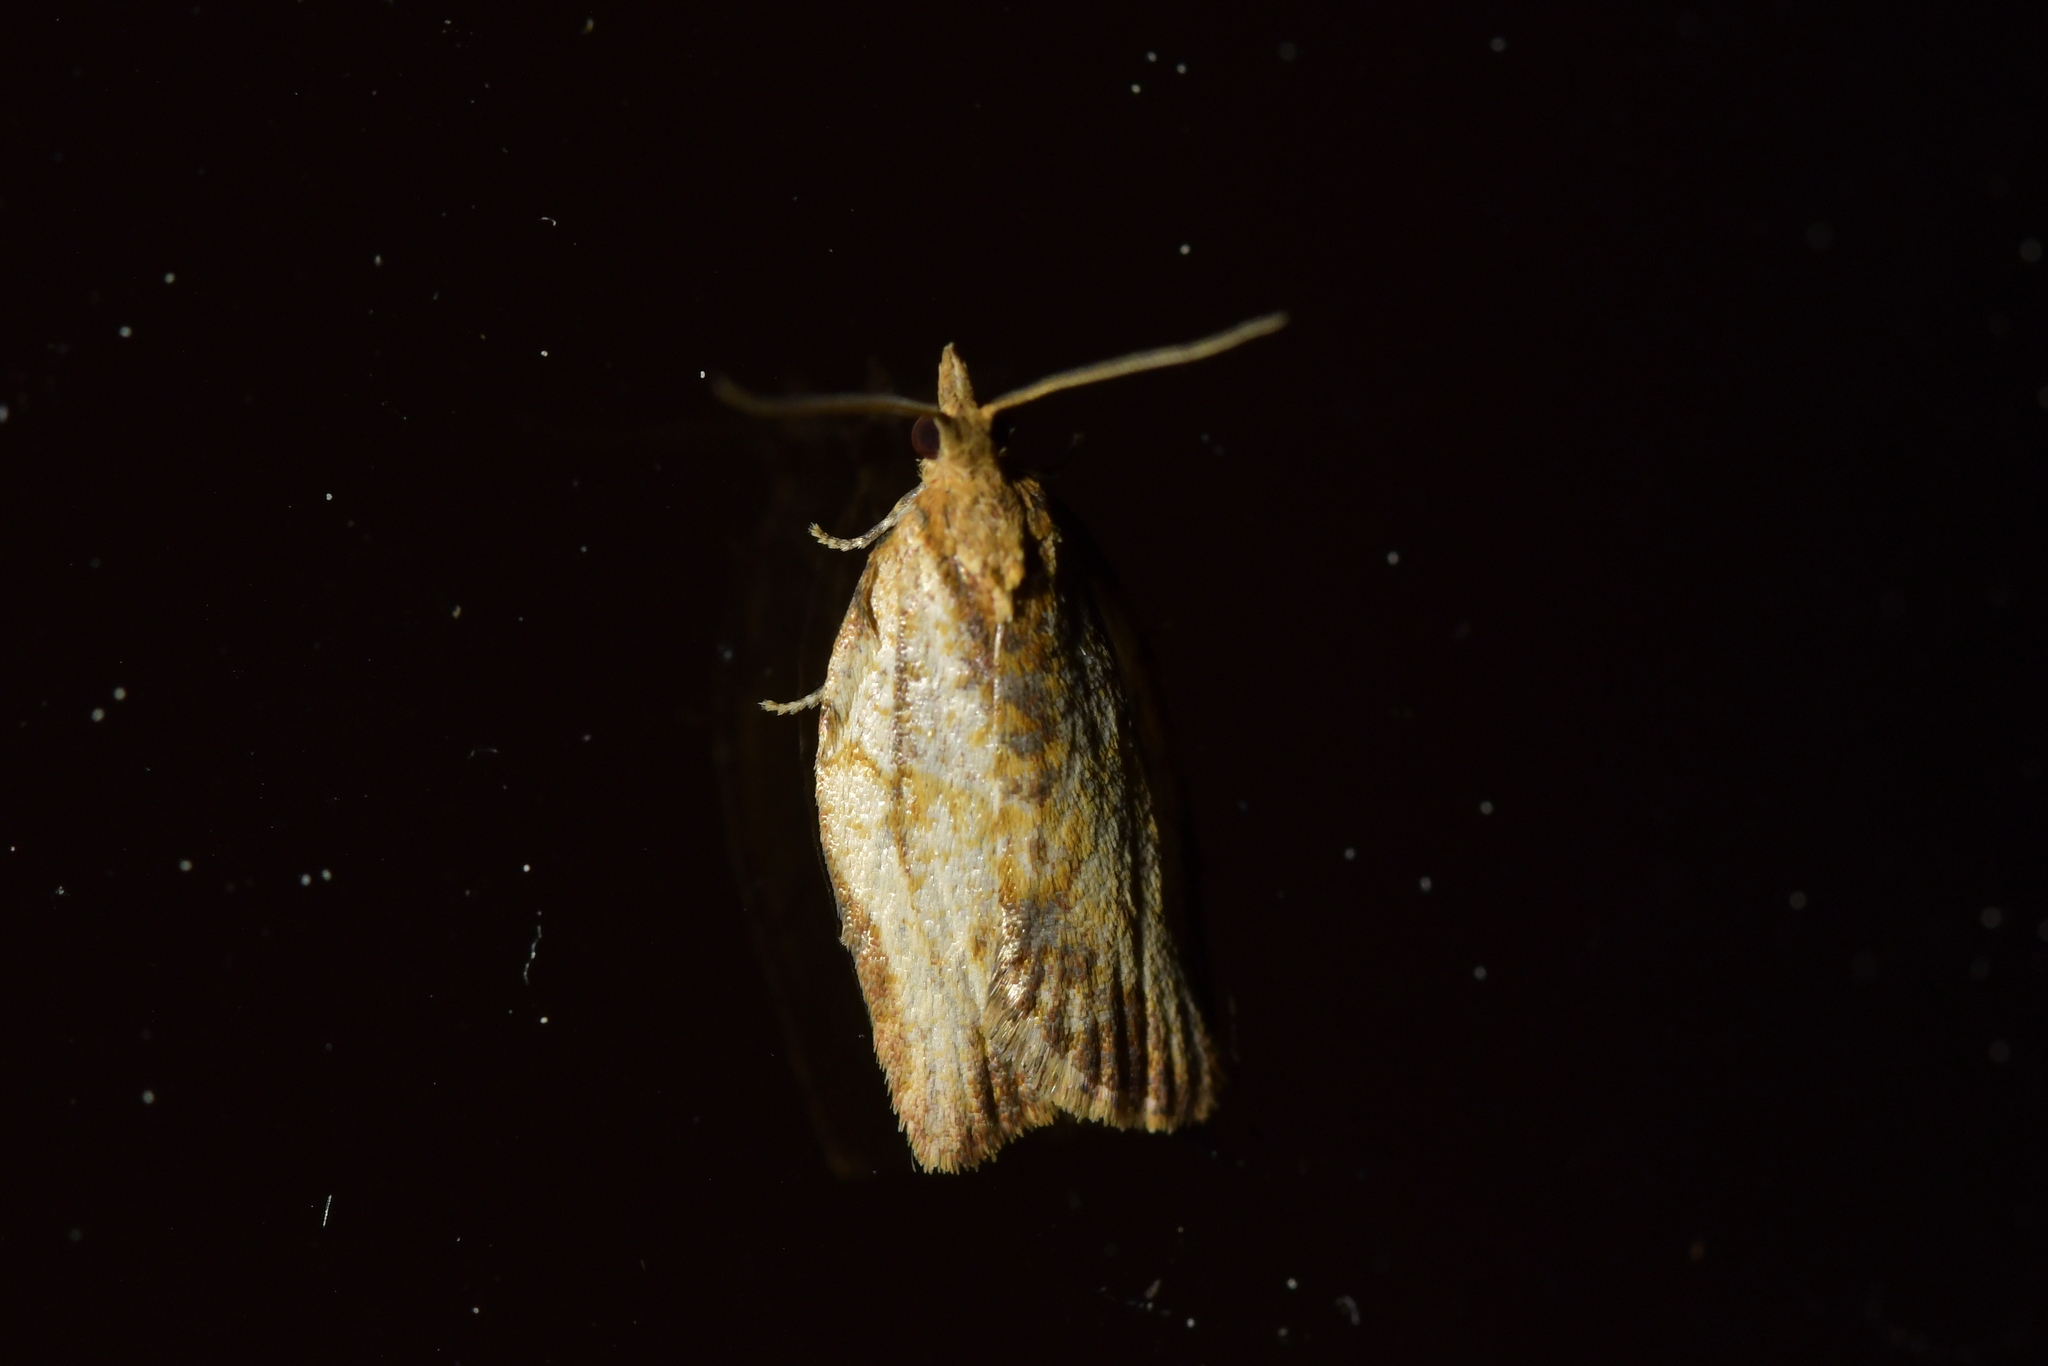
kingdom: Animalia
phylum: Arthropoda
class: Insecta
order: Lepidoptera
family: Tortricidae
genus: Epiphyas
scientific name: Epiphyas postvittana
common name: Light brown apple moth
